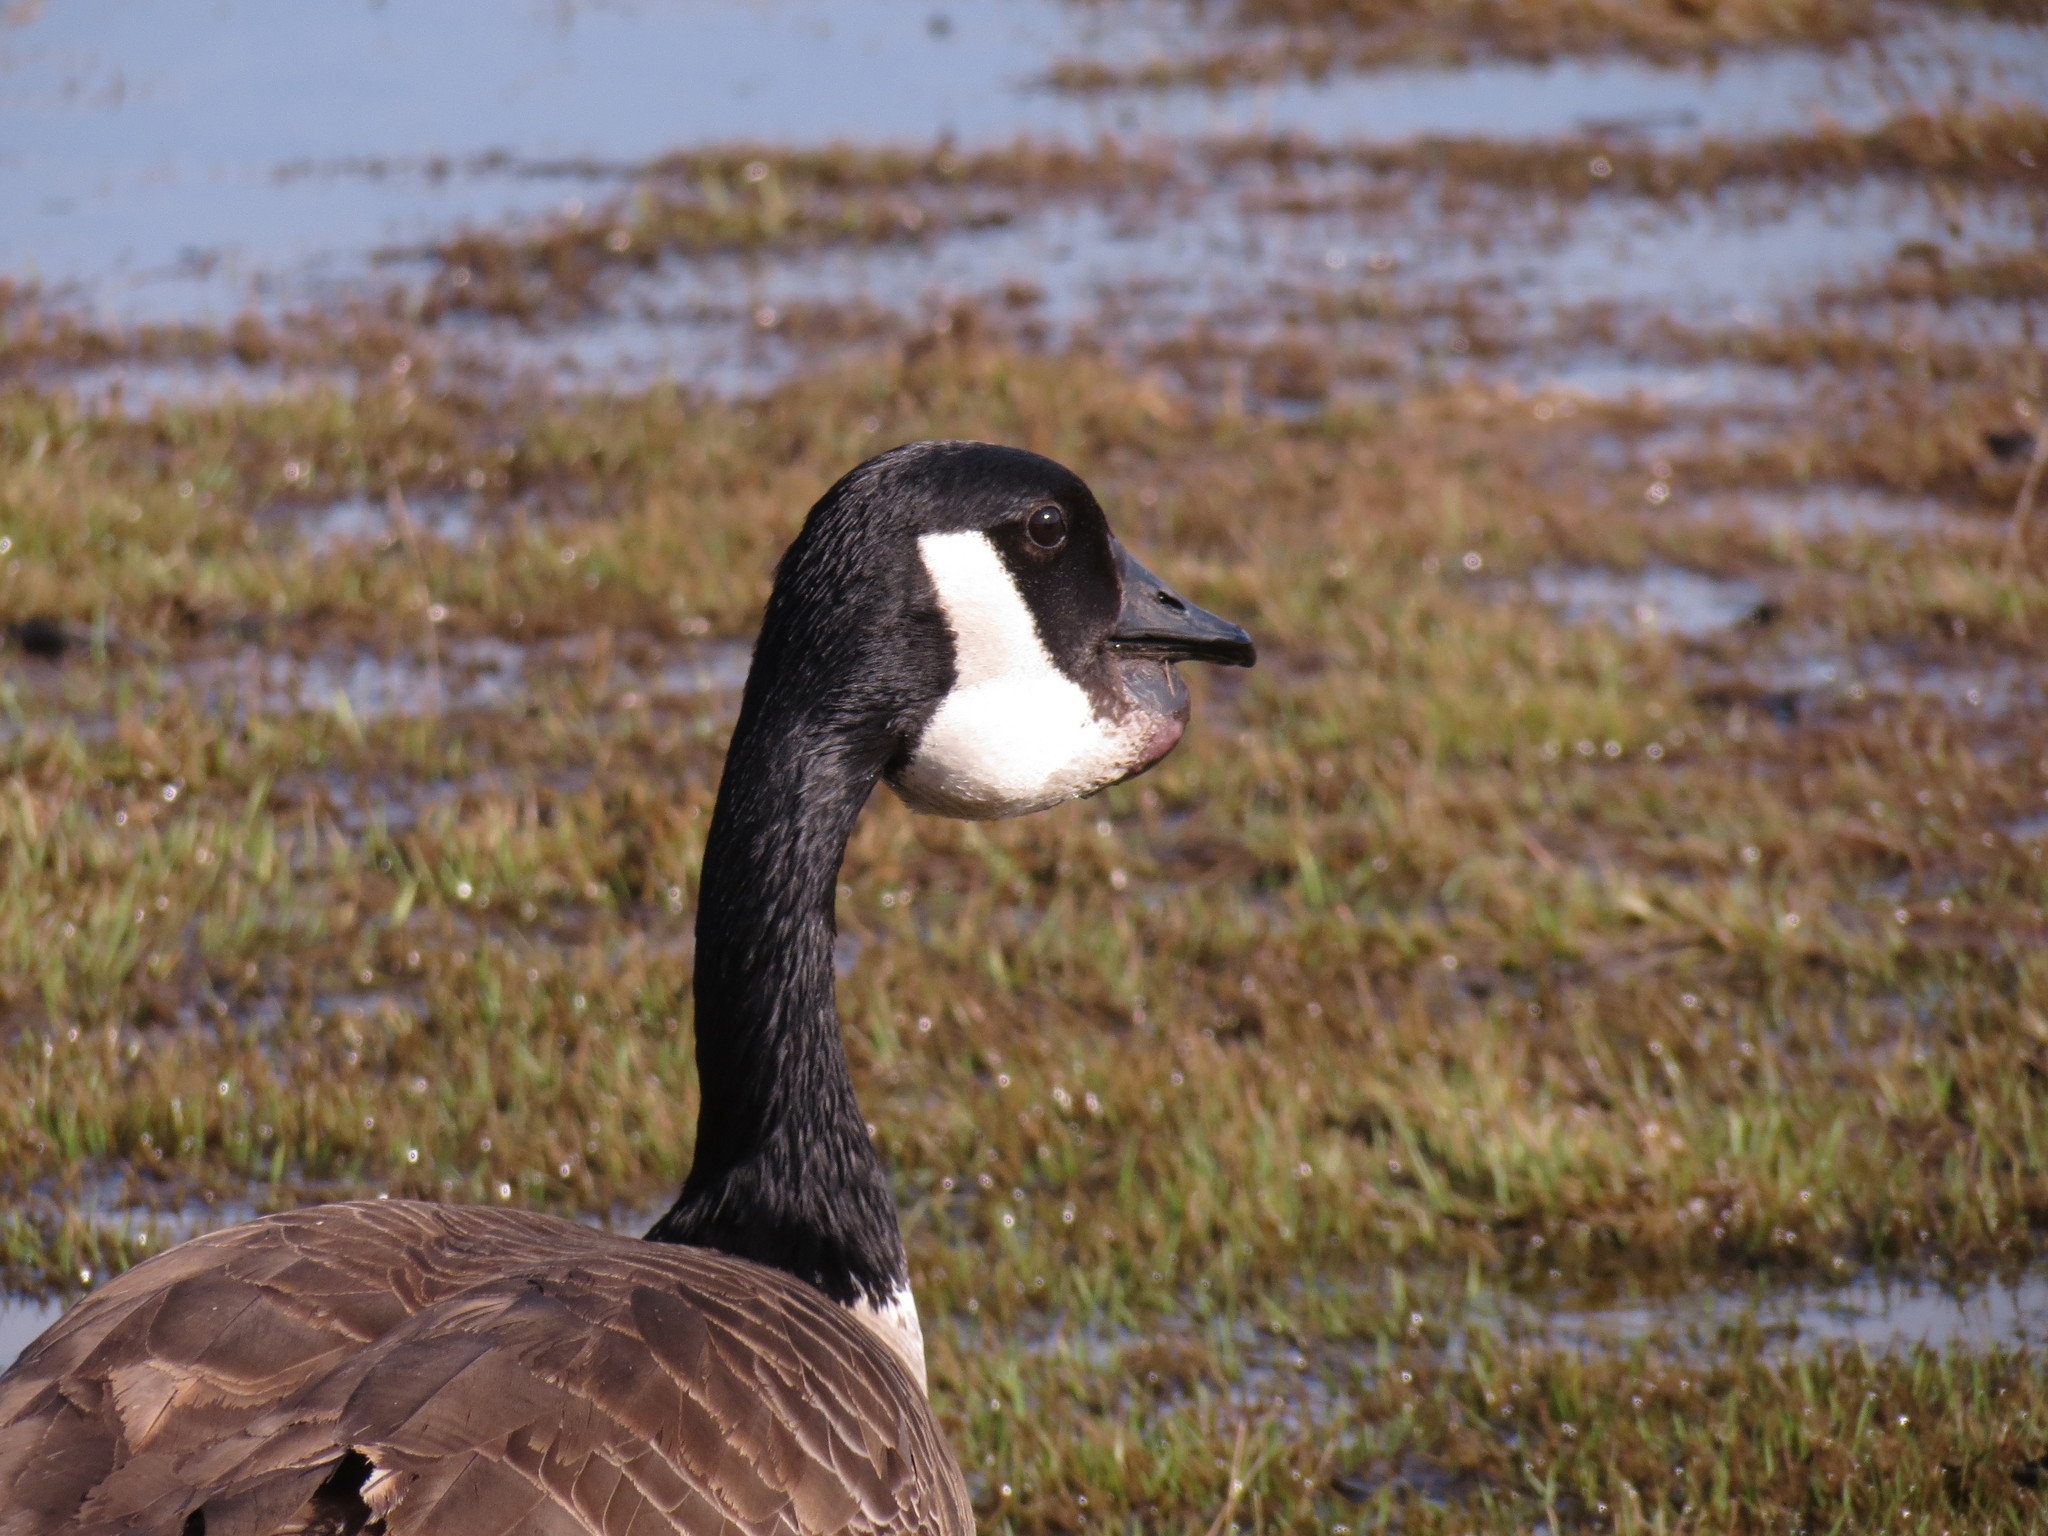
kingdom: Animalia
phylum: Chordata
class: Aves
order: Anseriformes
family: Anatidae
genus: Branta
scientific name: Branta canadensis
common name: Canada goose
